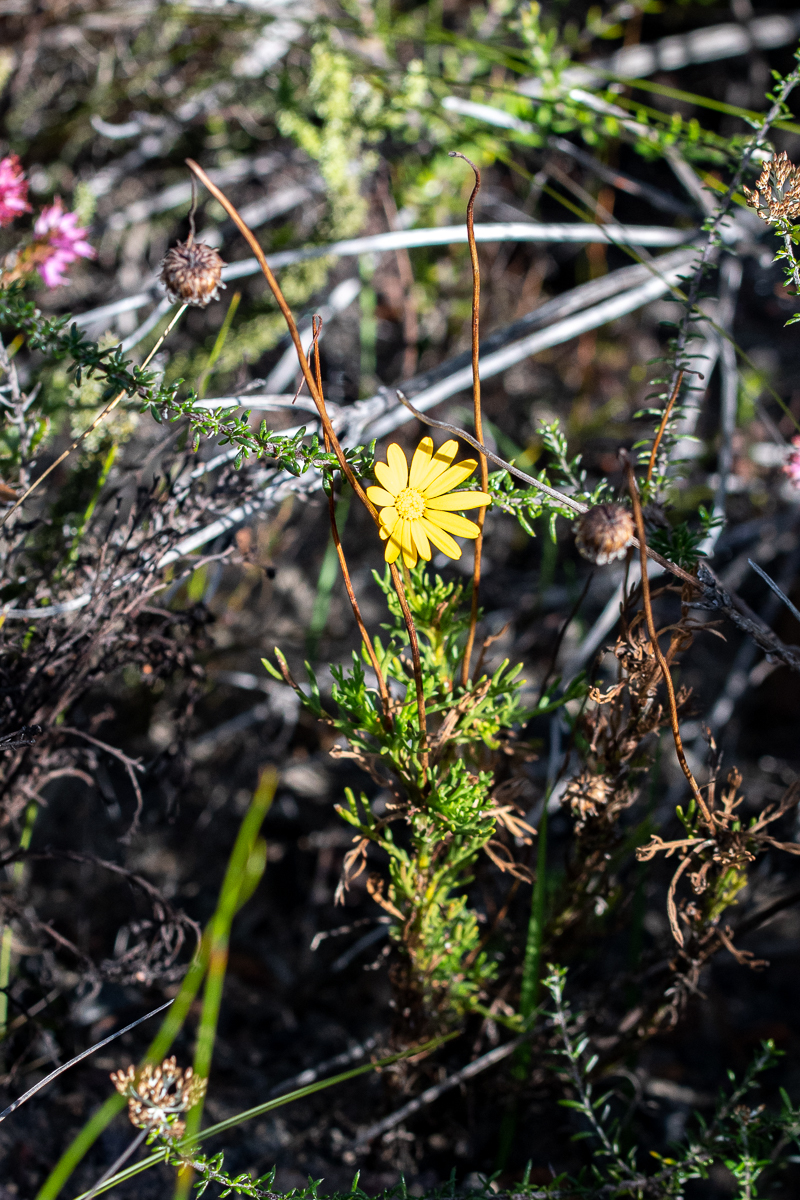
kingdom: Plantae
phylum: Tracheophyta
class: Magnoliopsida
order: Asterales
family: Asteraceae
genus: Ursinia
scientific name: Ursinia dentata
